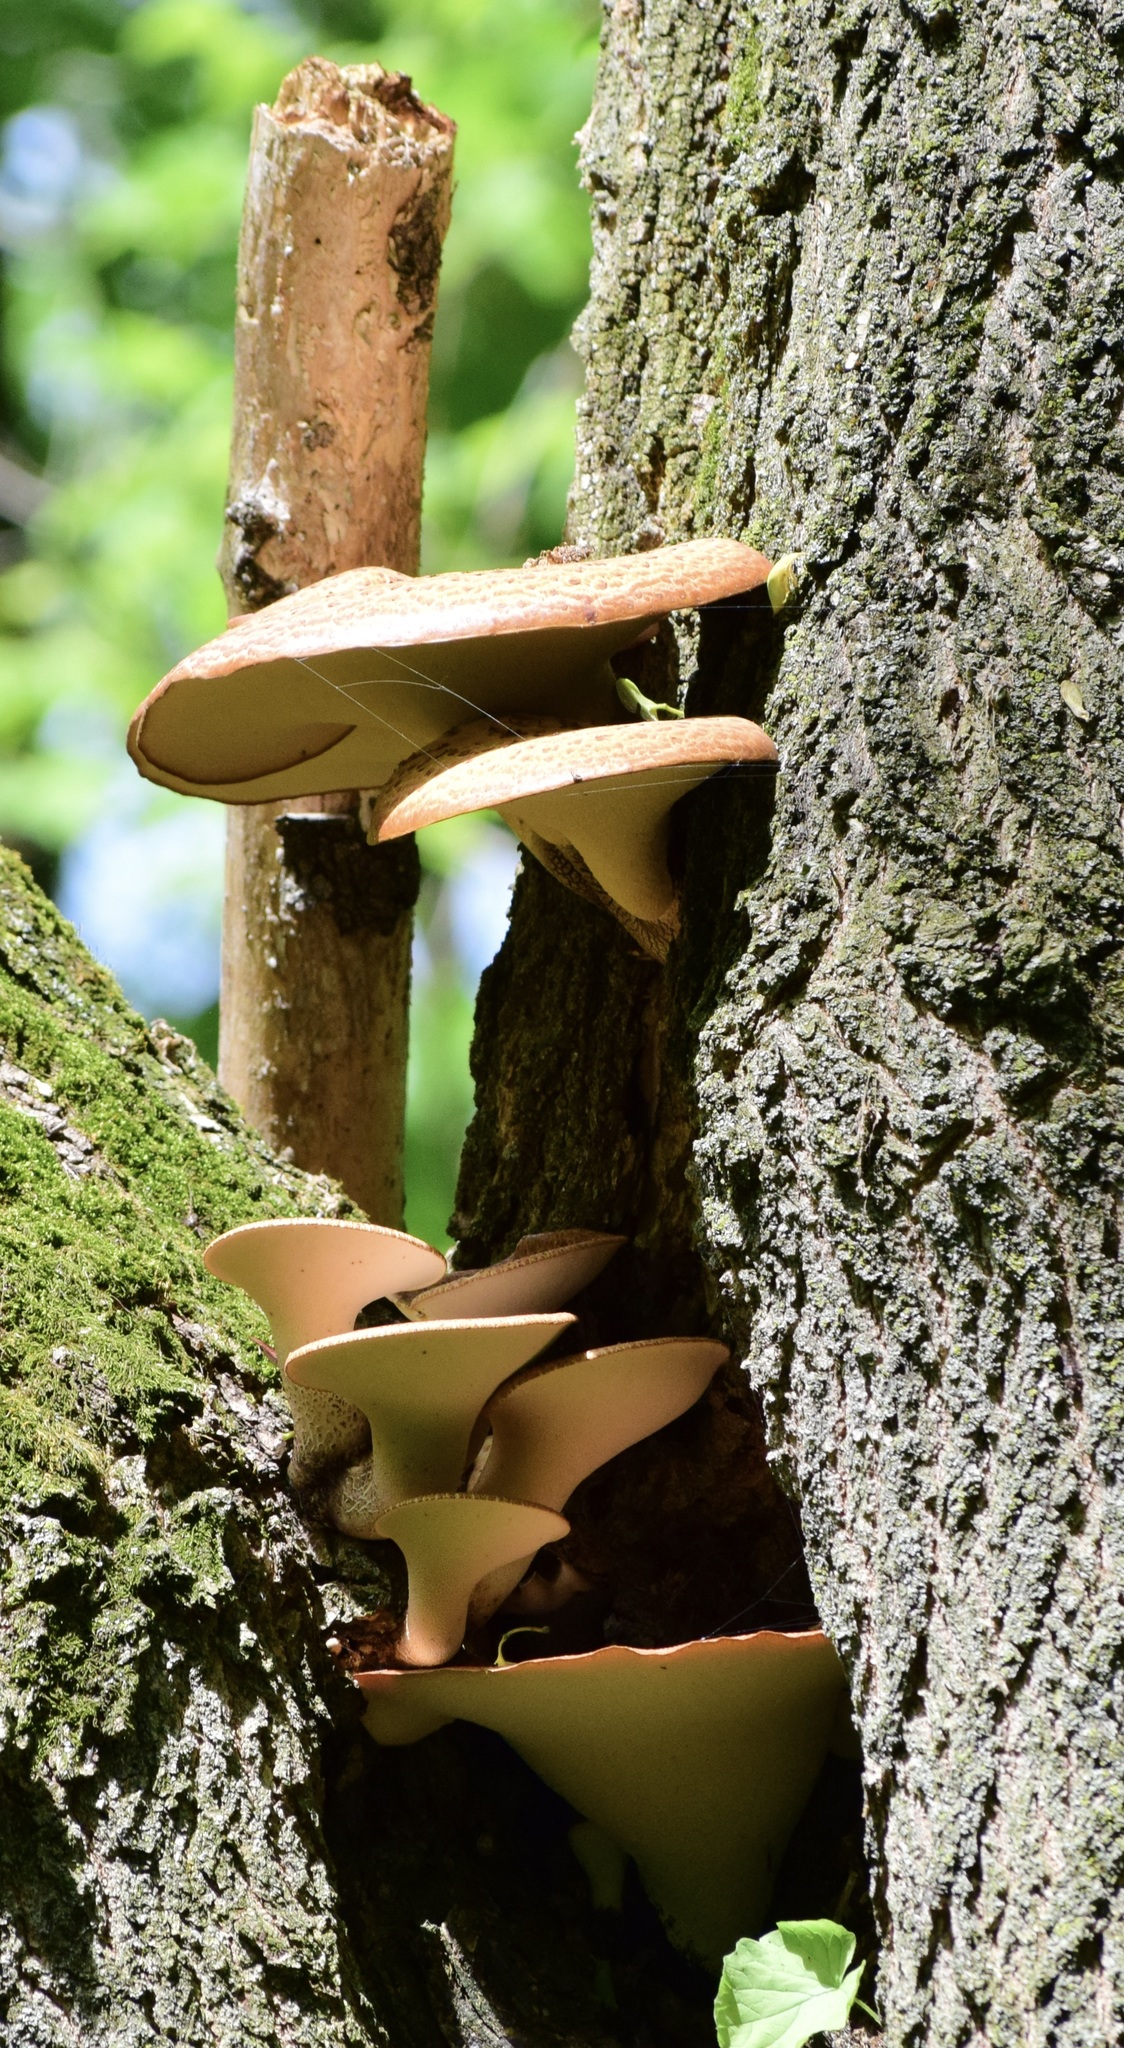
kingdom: Fungi
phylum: Basidiomycota
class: Agaricomycetes
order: Polyporales
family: Polyporaceae
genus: Cerioporus
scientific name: Cerioporus squamosus
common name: Dryad's saddle
